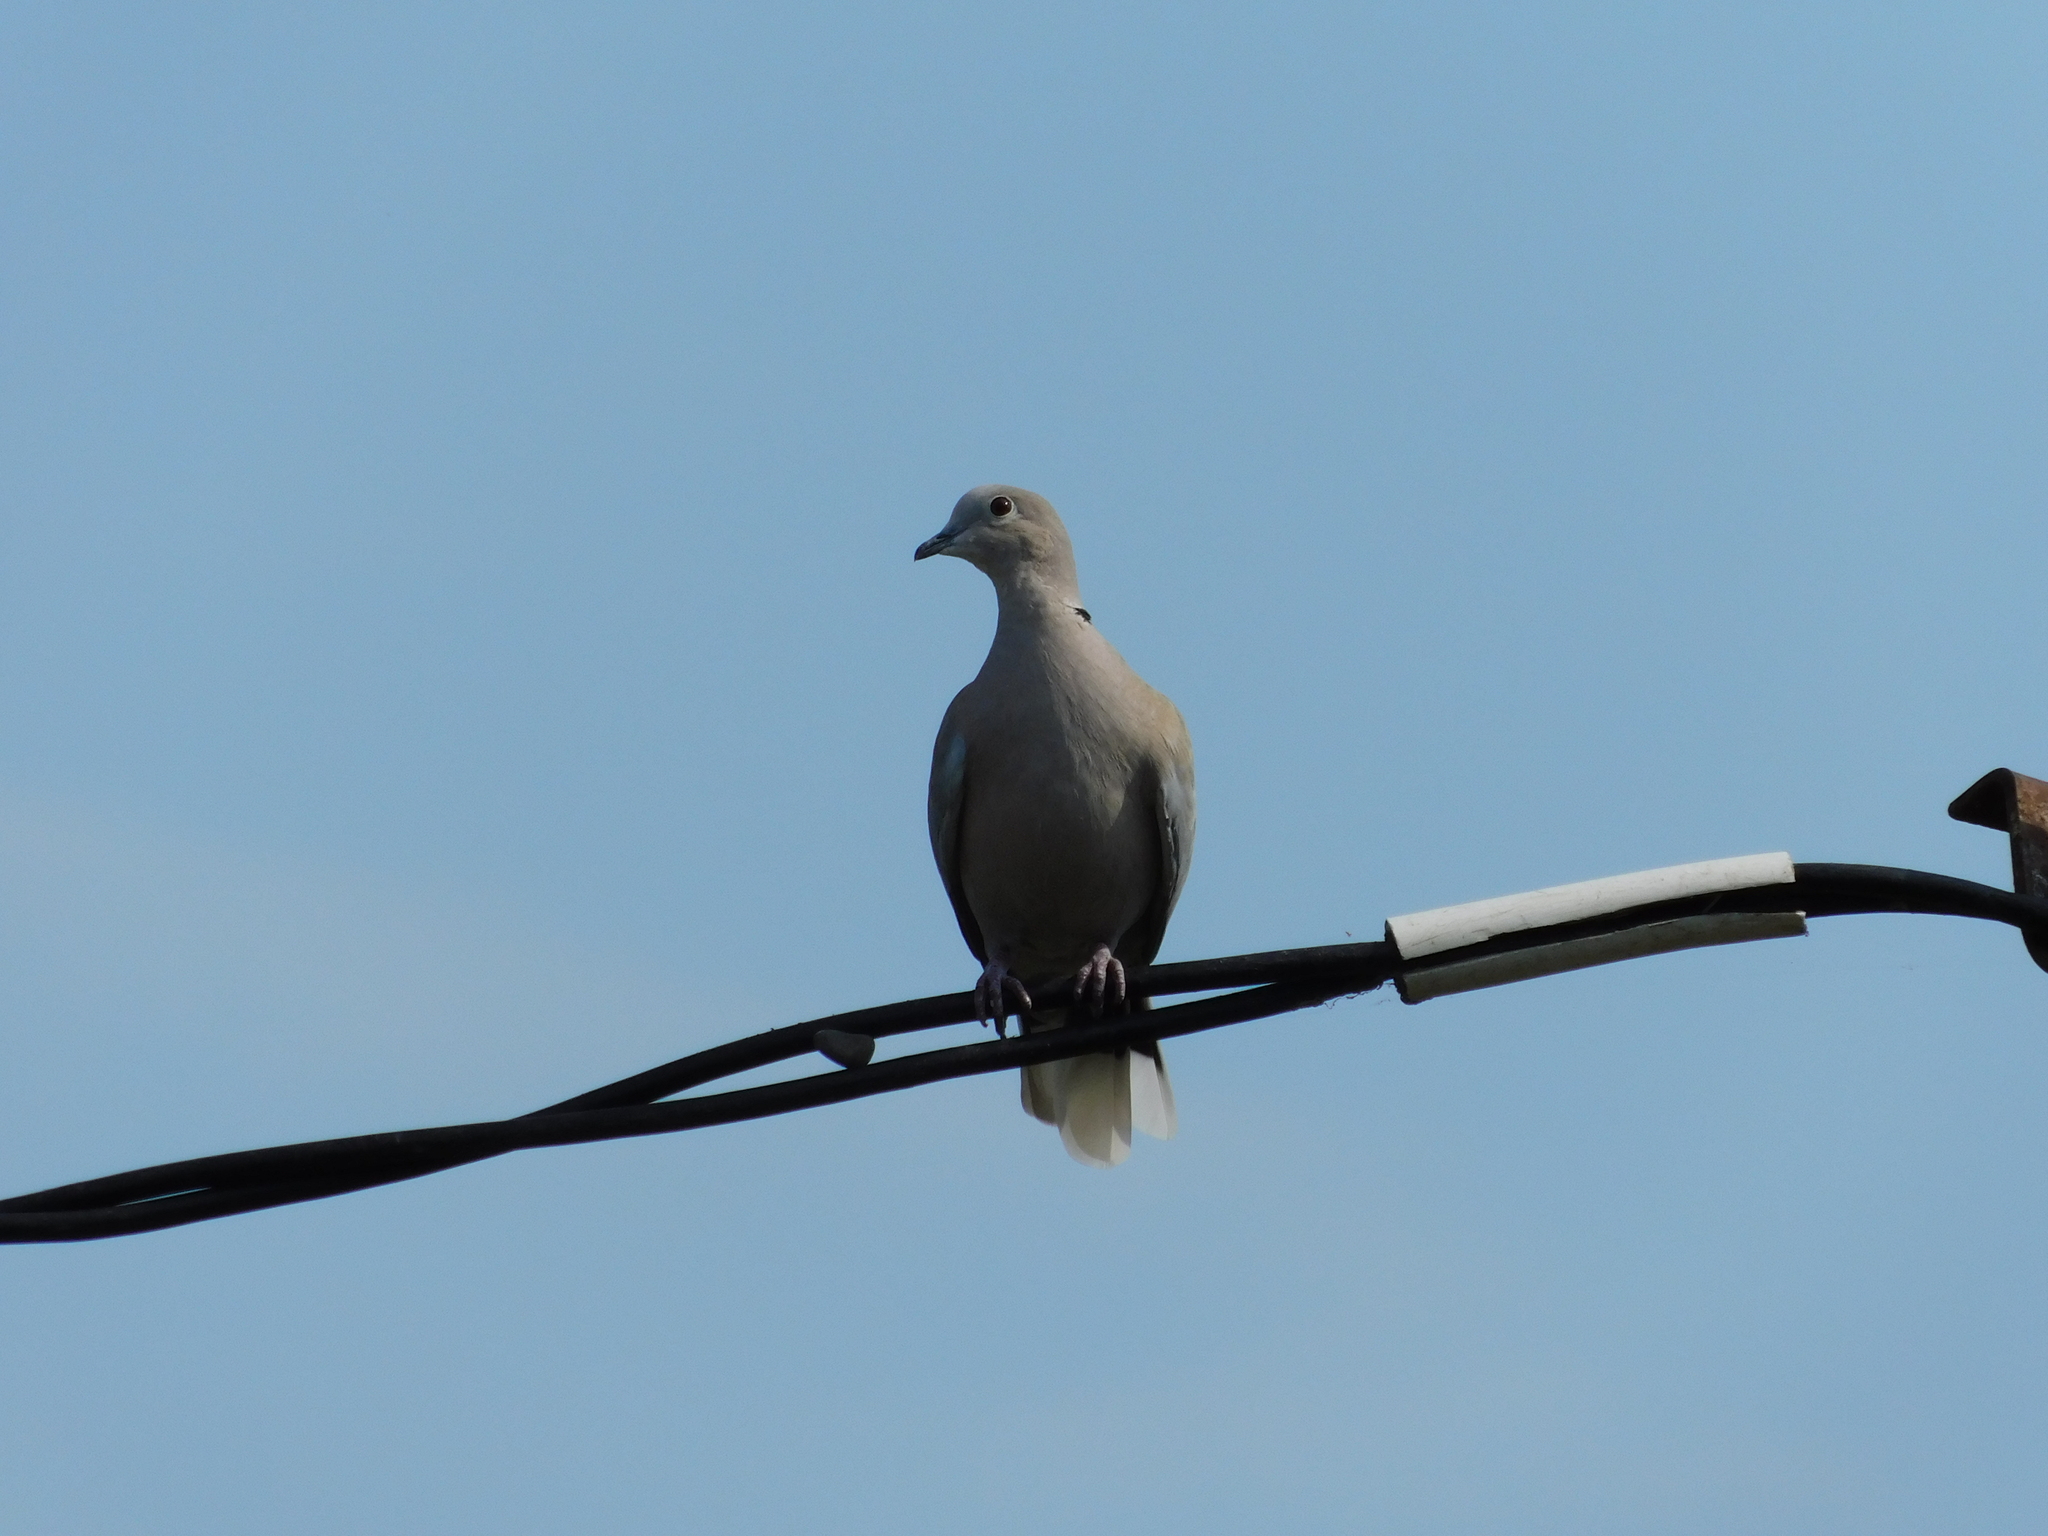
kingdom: Animalia
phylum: Chordata
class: Aves
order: Columbiformes
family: Columbidae
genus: Streptopelia
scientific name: Streptopelia decaocto
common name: Eurasian collared dove
